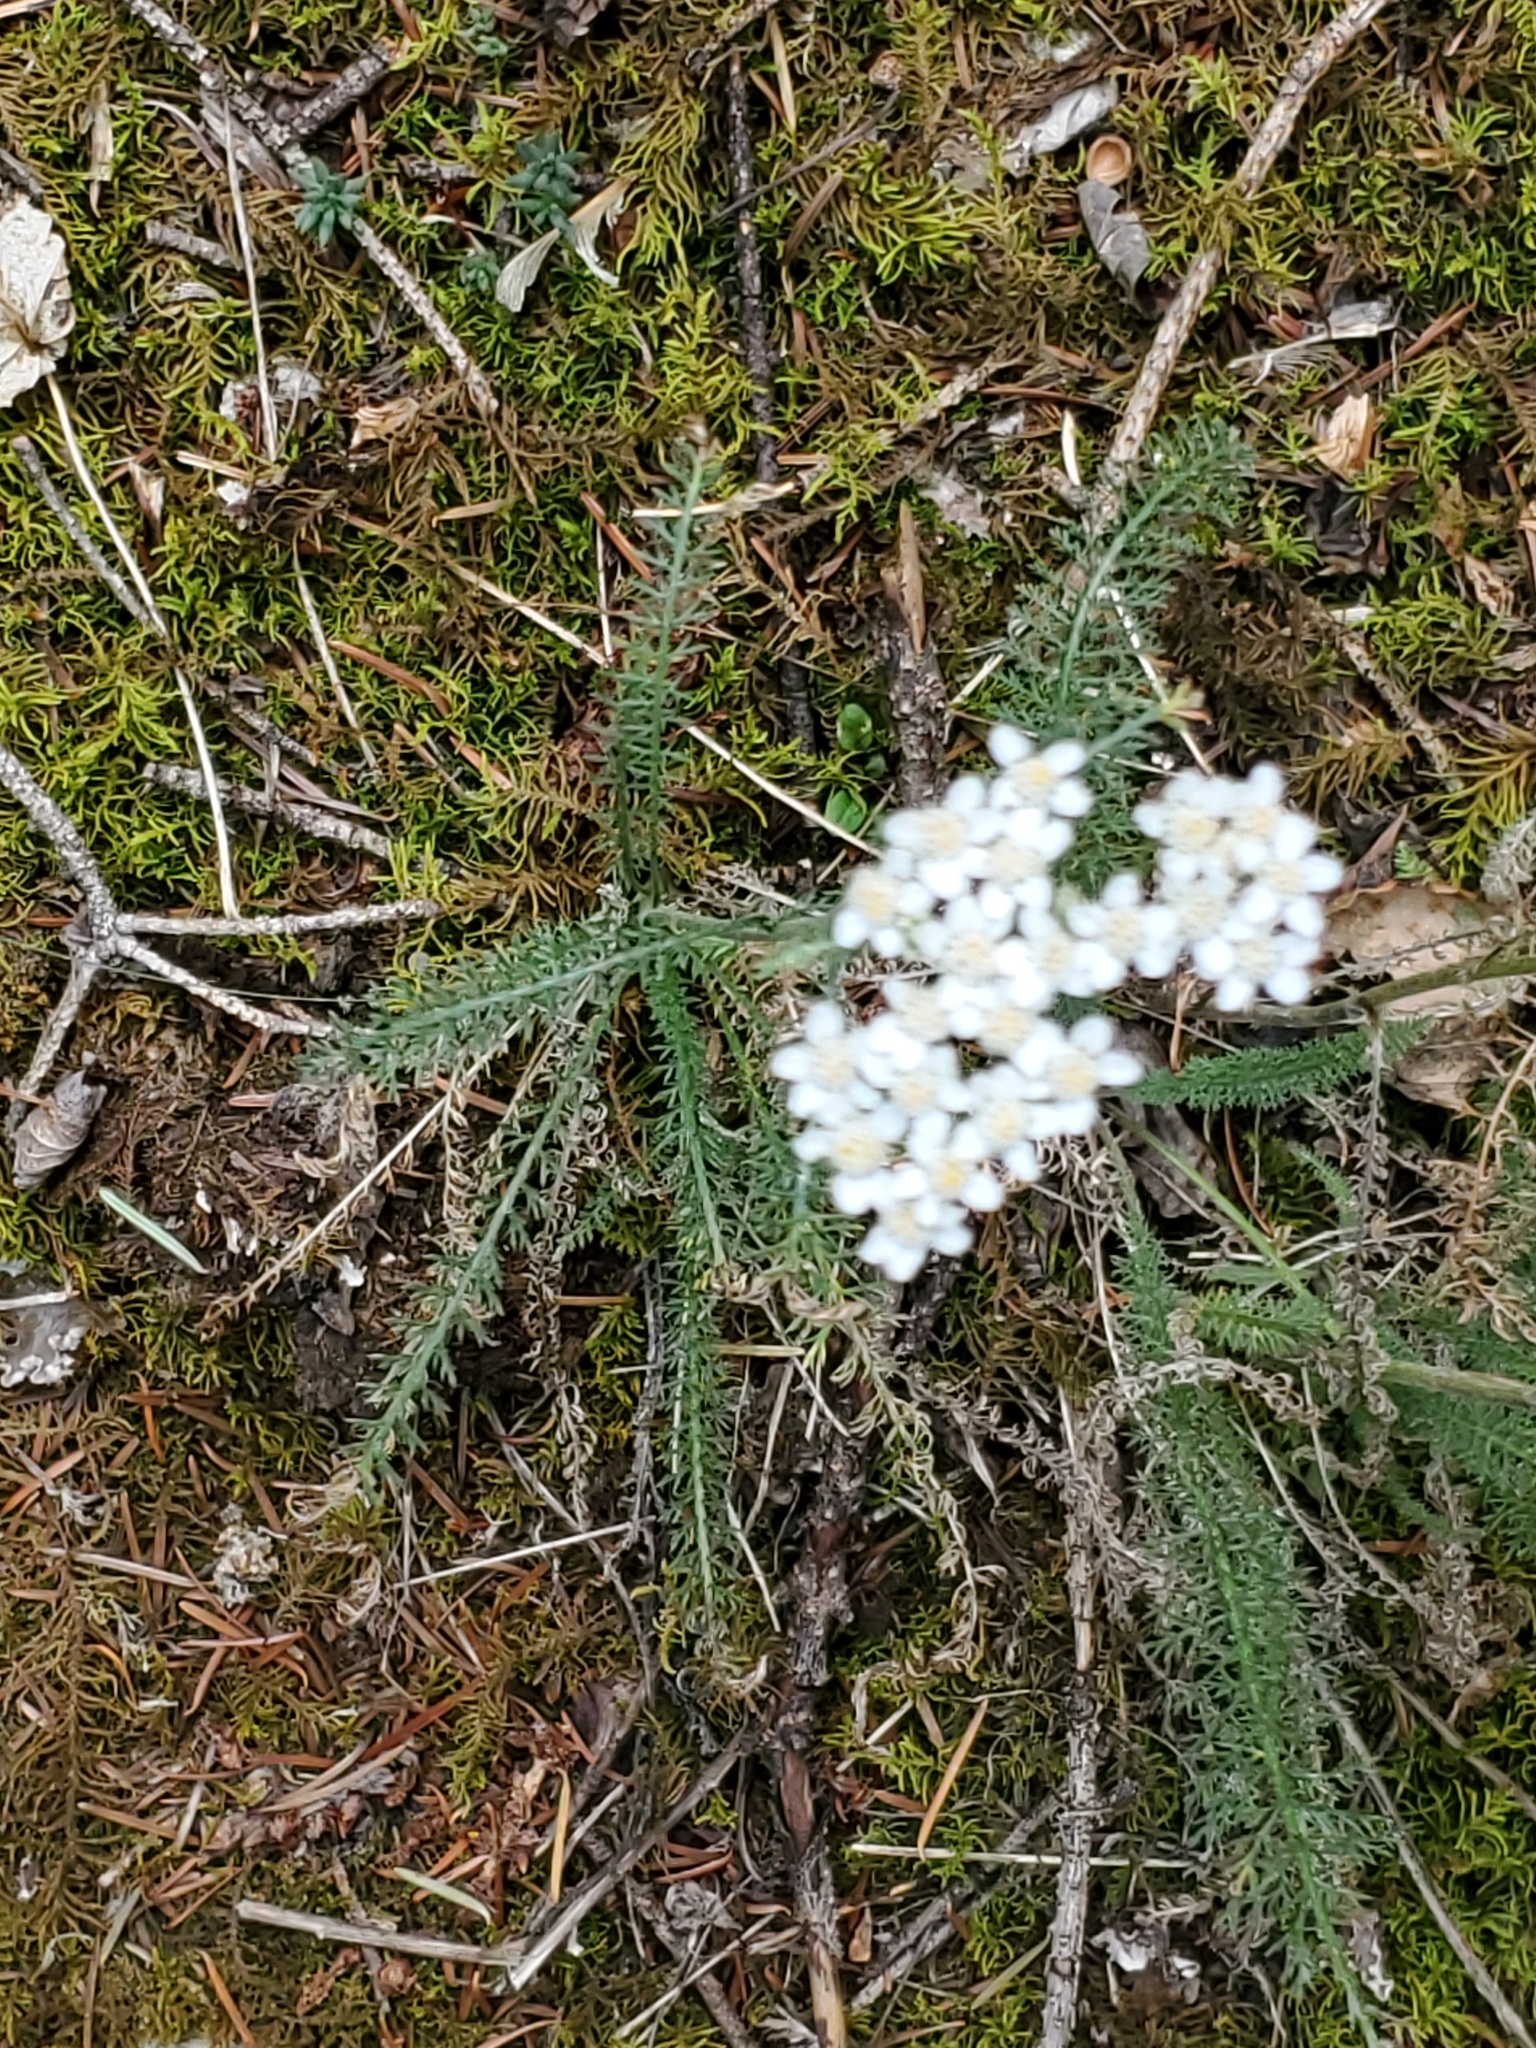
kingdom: Plantae
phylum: Tracheophyta
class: Magnoliopsida
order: Asterales
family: Asteraceae
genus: Achillea
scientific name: Achillea millefolium
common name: Yarrow
